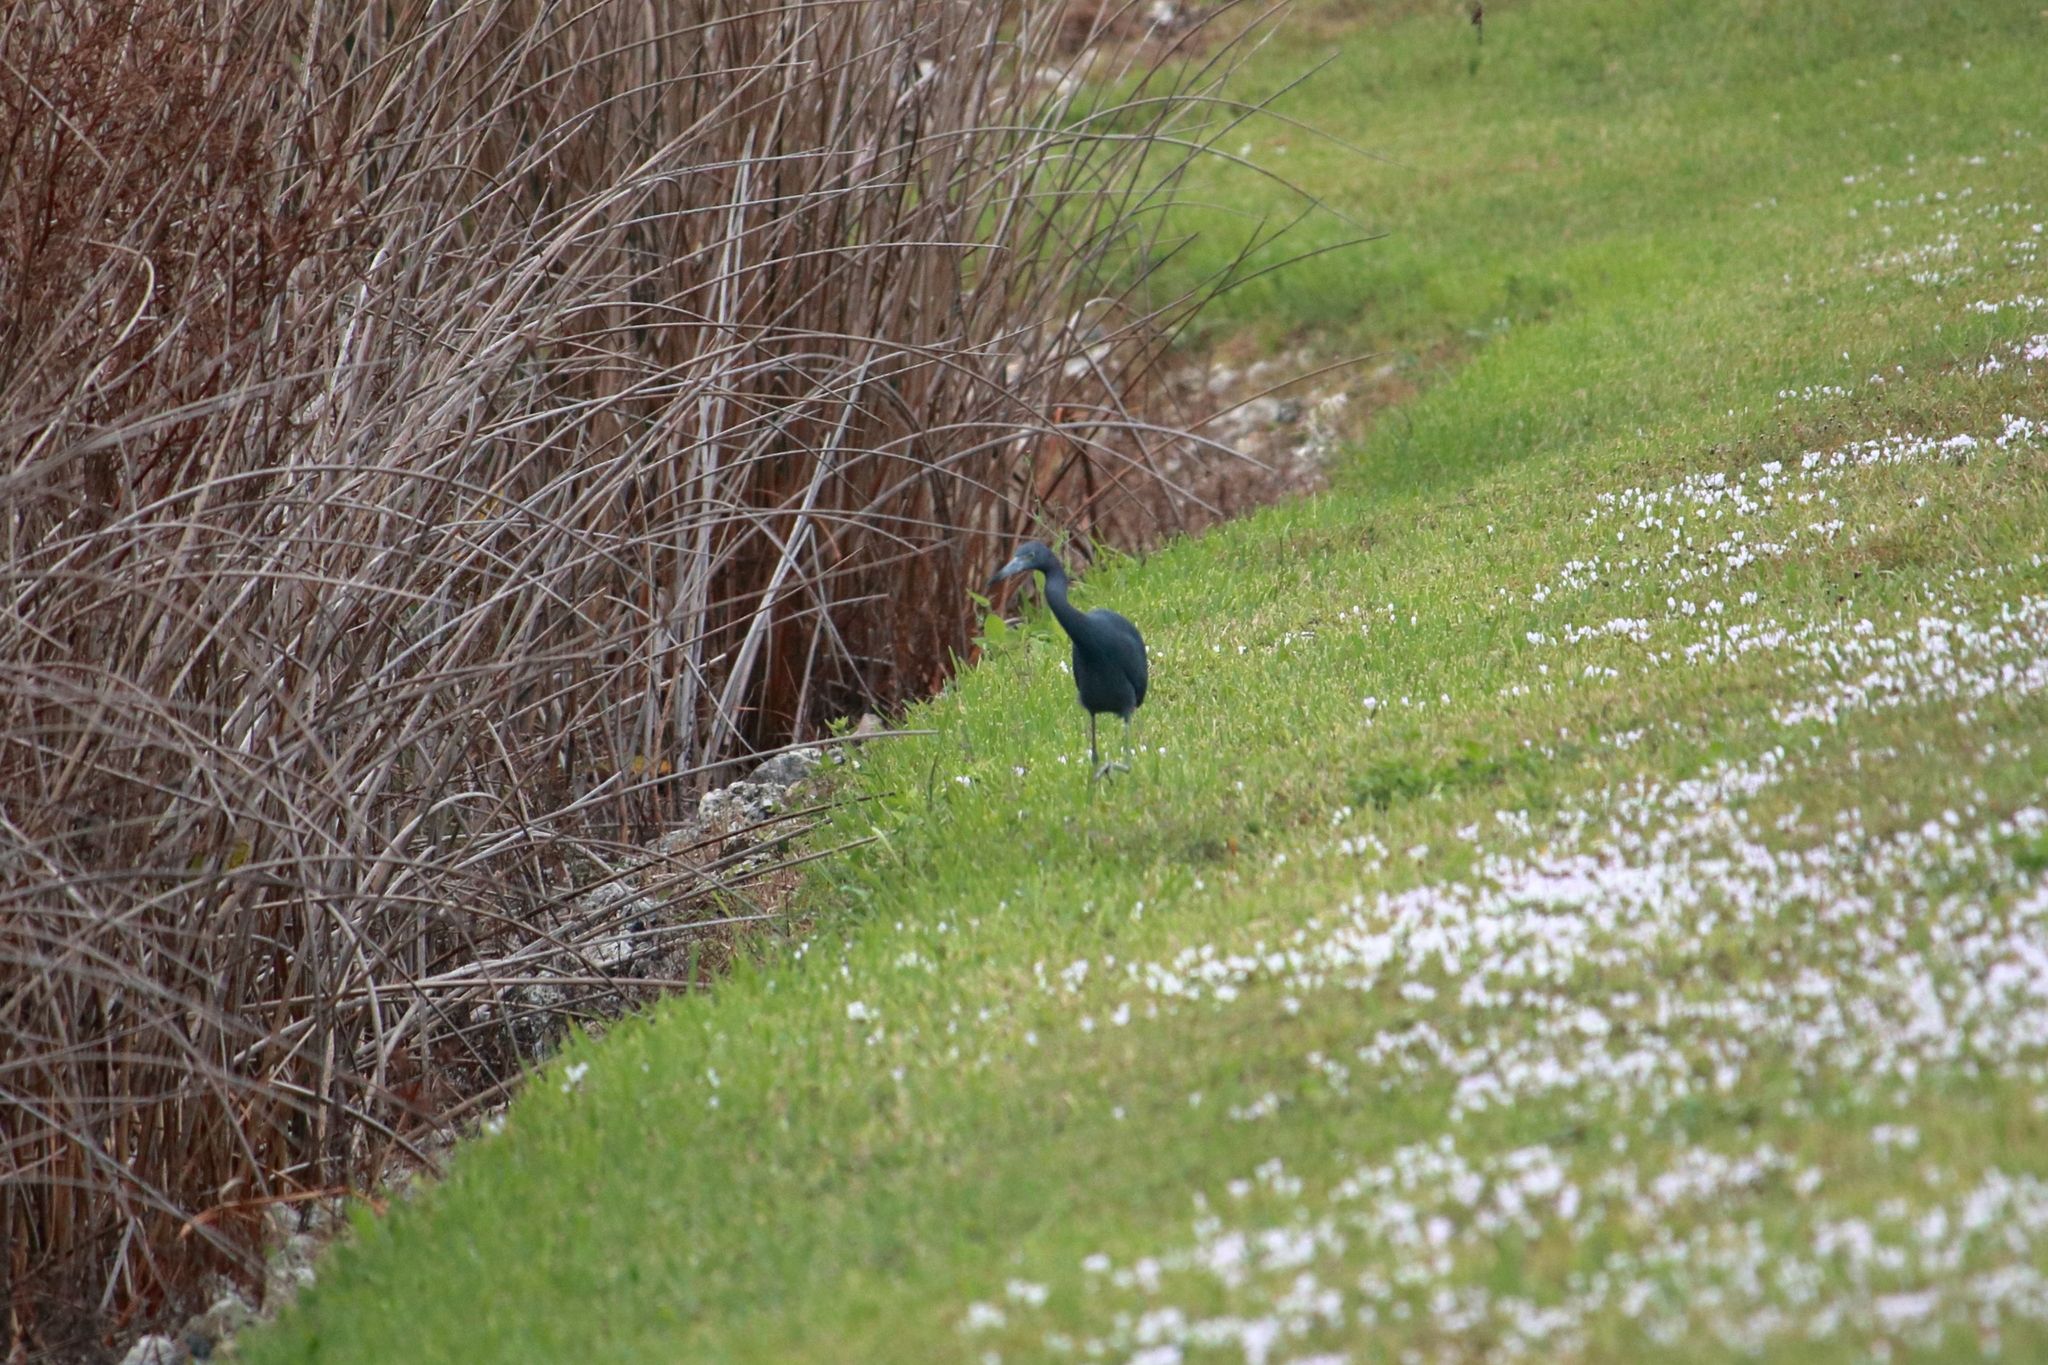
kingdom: Animalia
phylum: Chordata
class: Aves
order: Pelecaniformes
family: Ardeidae
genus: Egretta
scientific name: Egretta caerulea
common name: Little blue heron
